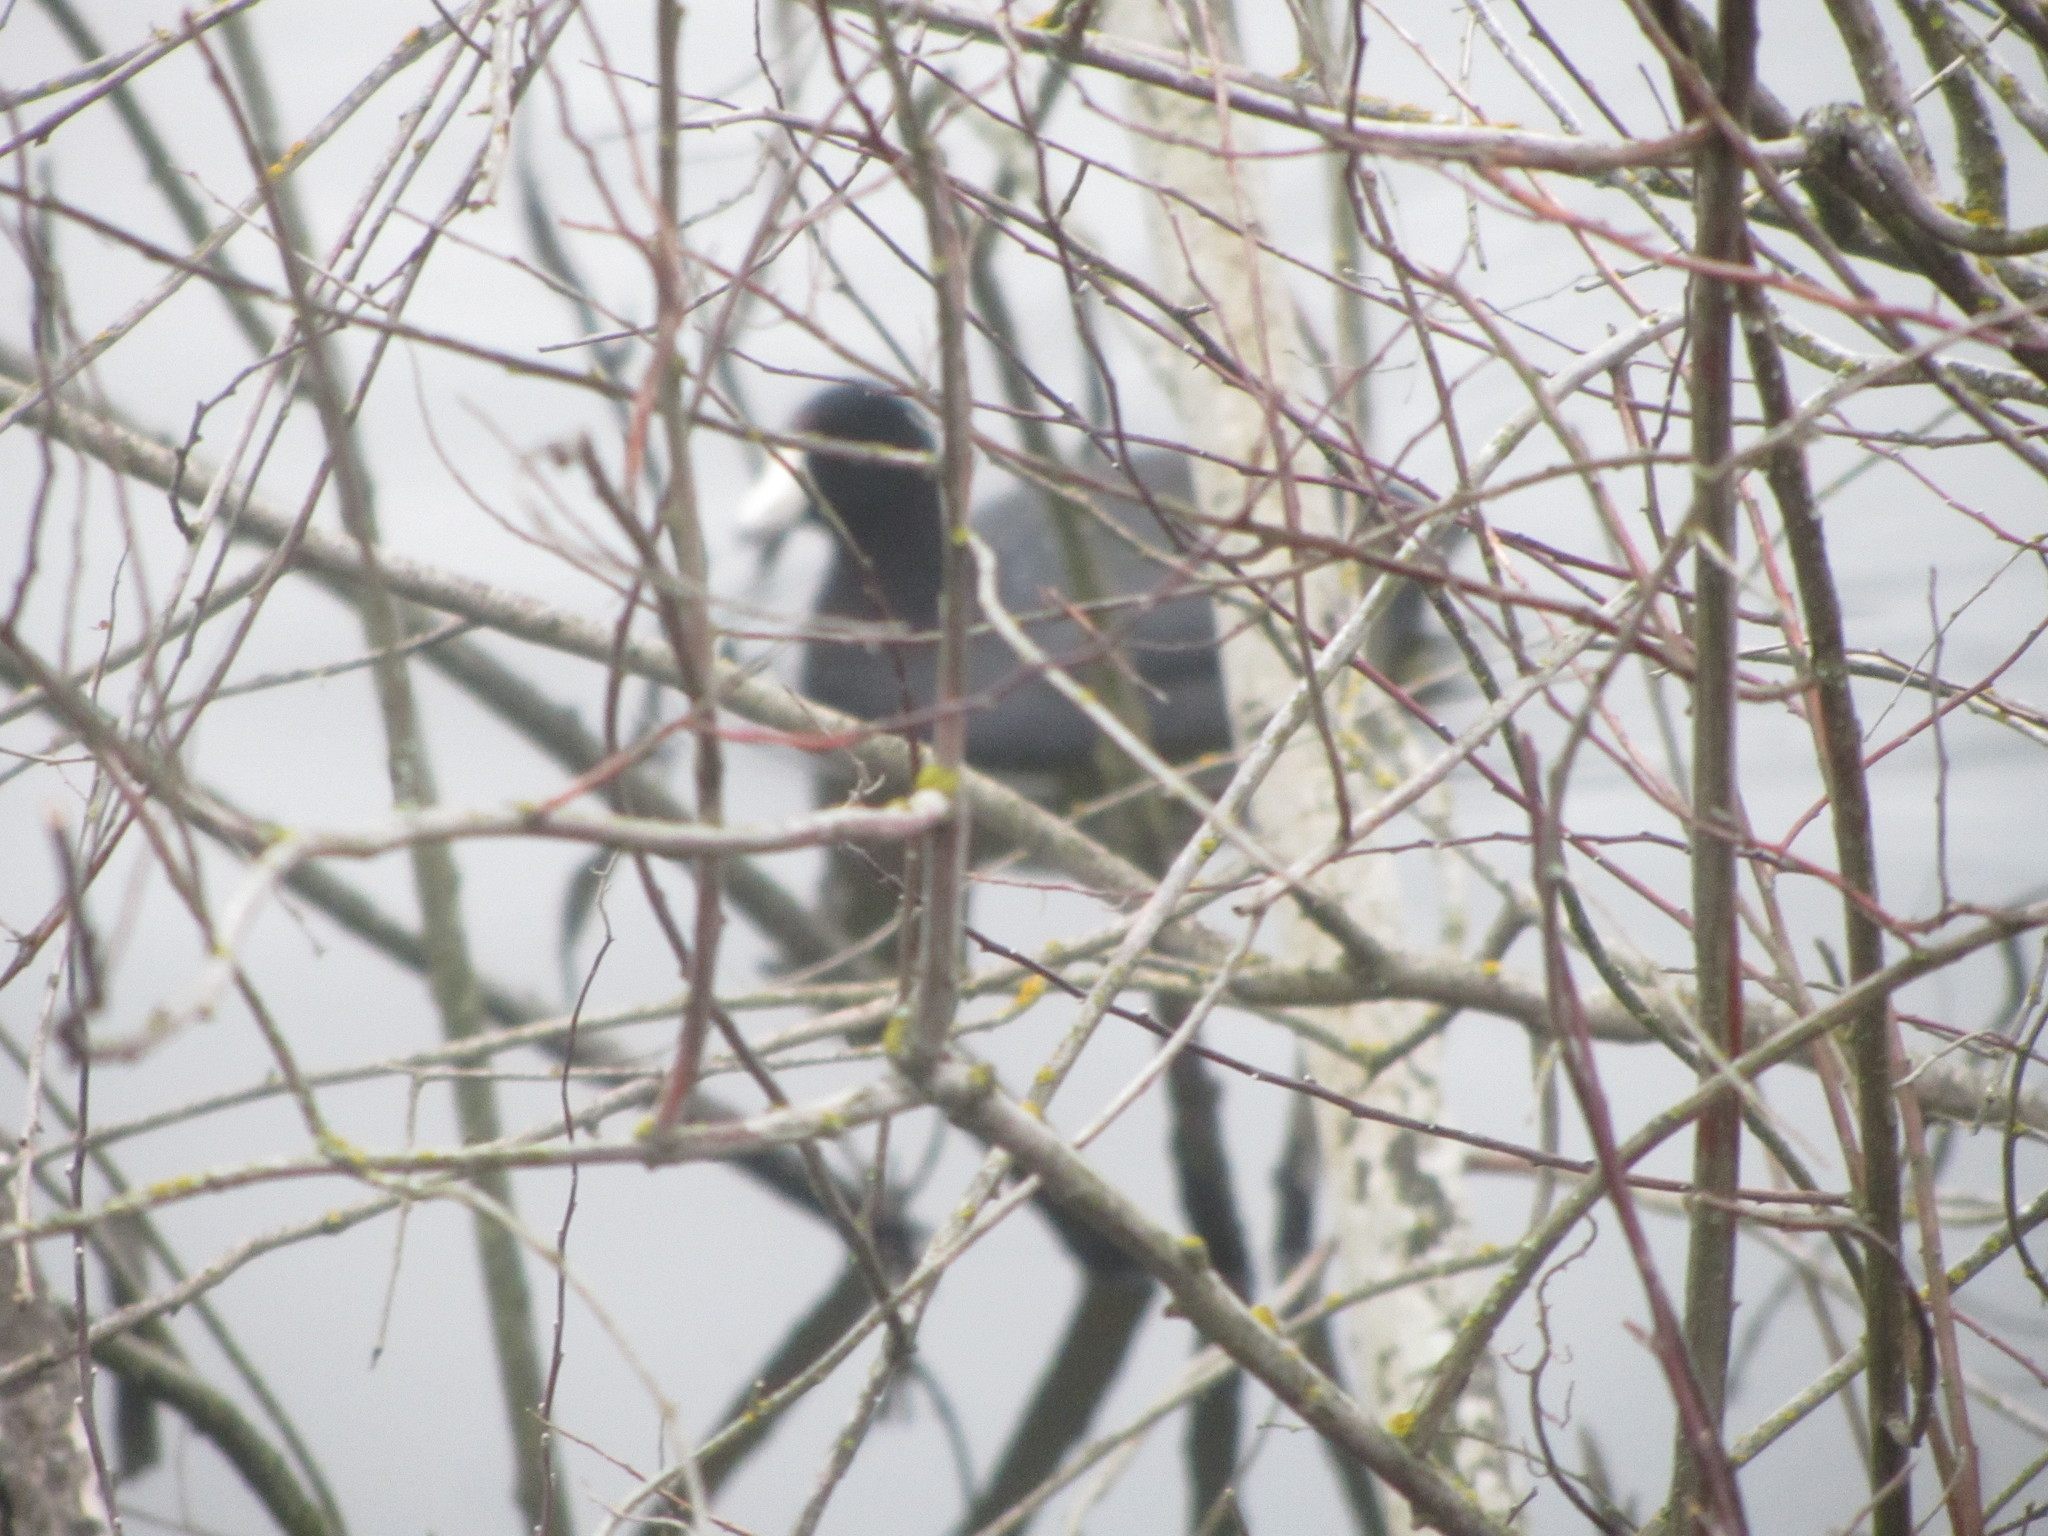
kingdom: Animalia
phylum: Chordata
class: Aves
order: Gruiformes
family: Rallidae
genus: Fulica
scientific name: Fulica americana
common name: American coot
